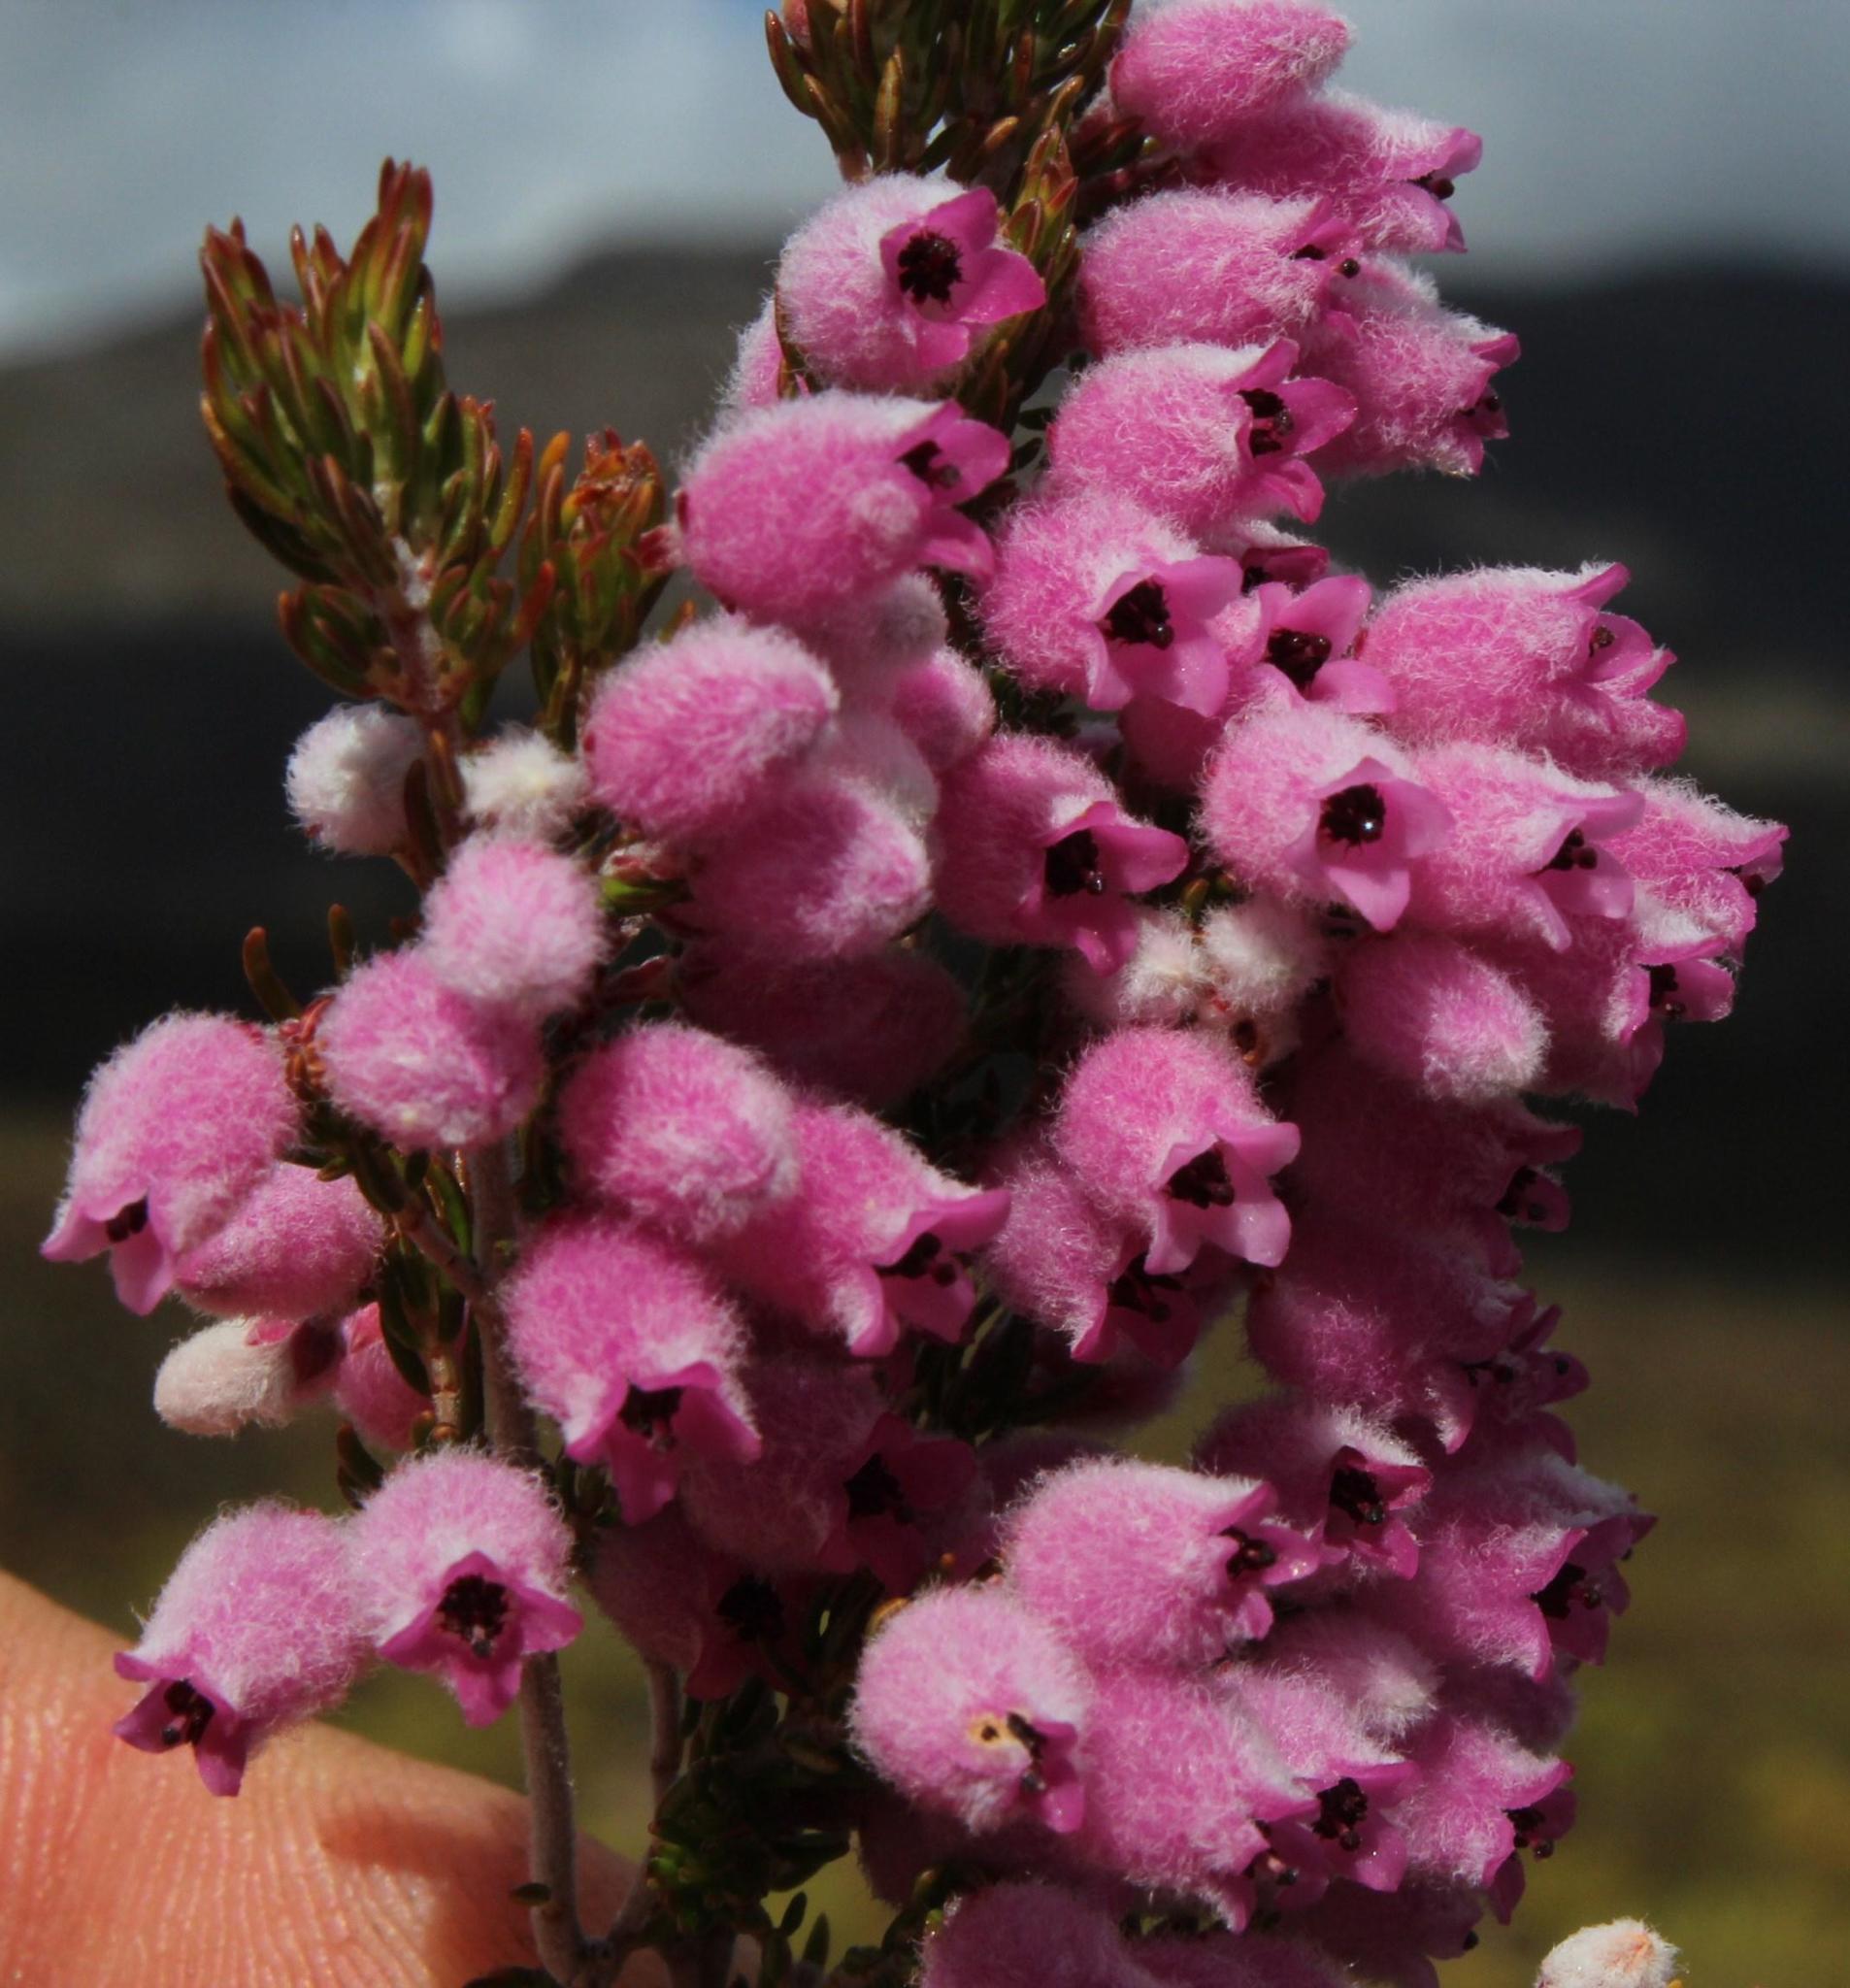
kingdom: Plantae
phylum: Tracheophyta
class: Magnoliopsida
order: Ericales
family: Ericaceae
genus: Erica
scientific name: Erica ovina
